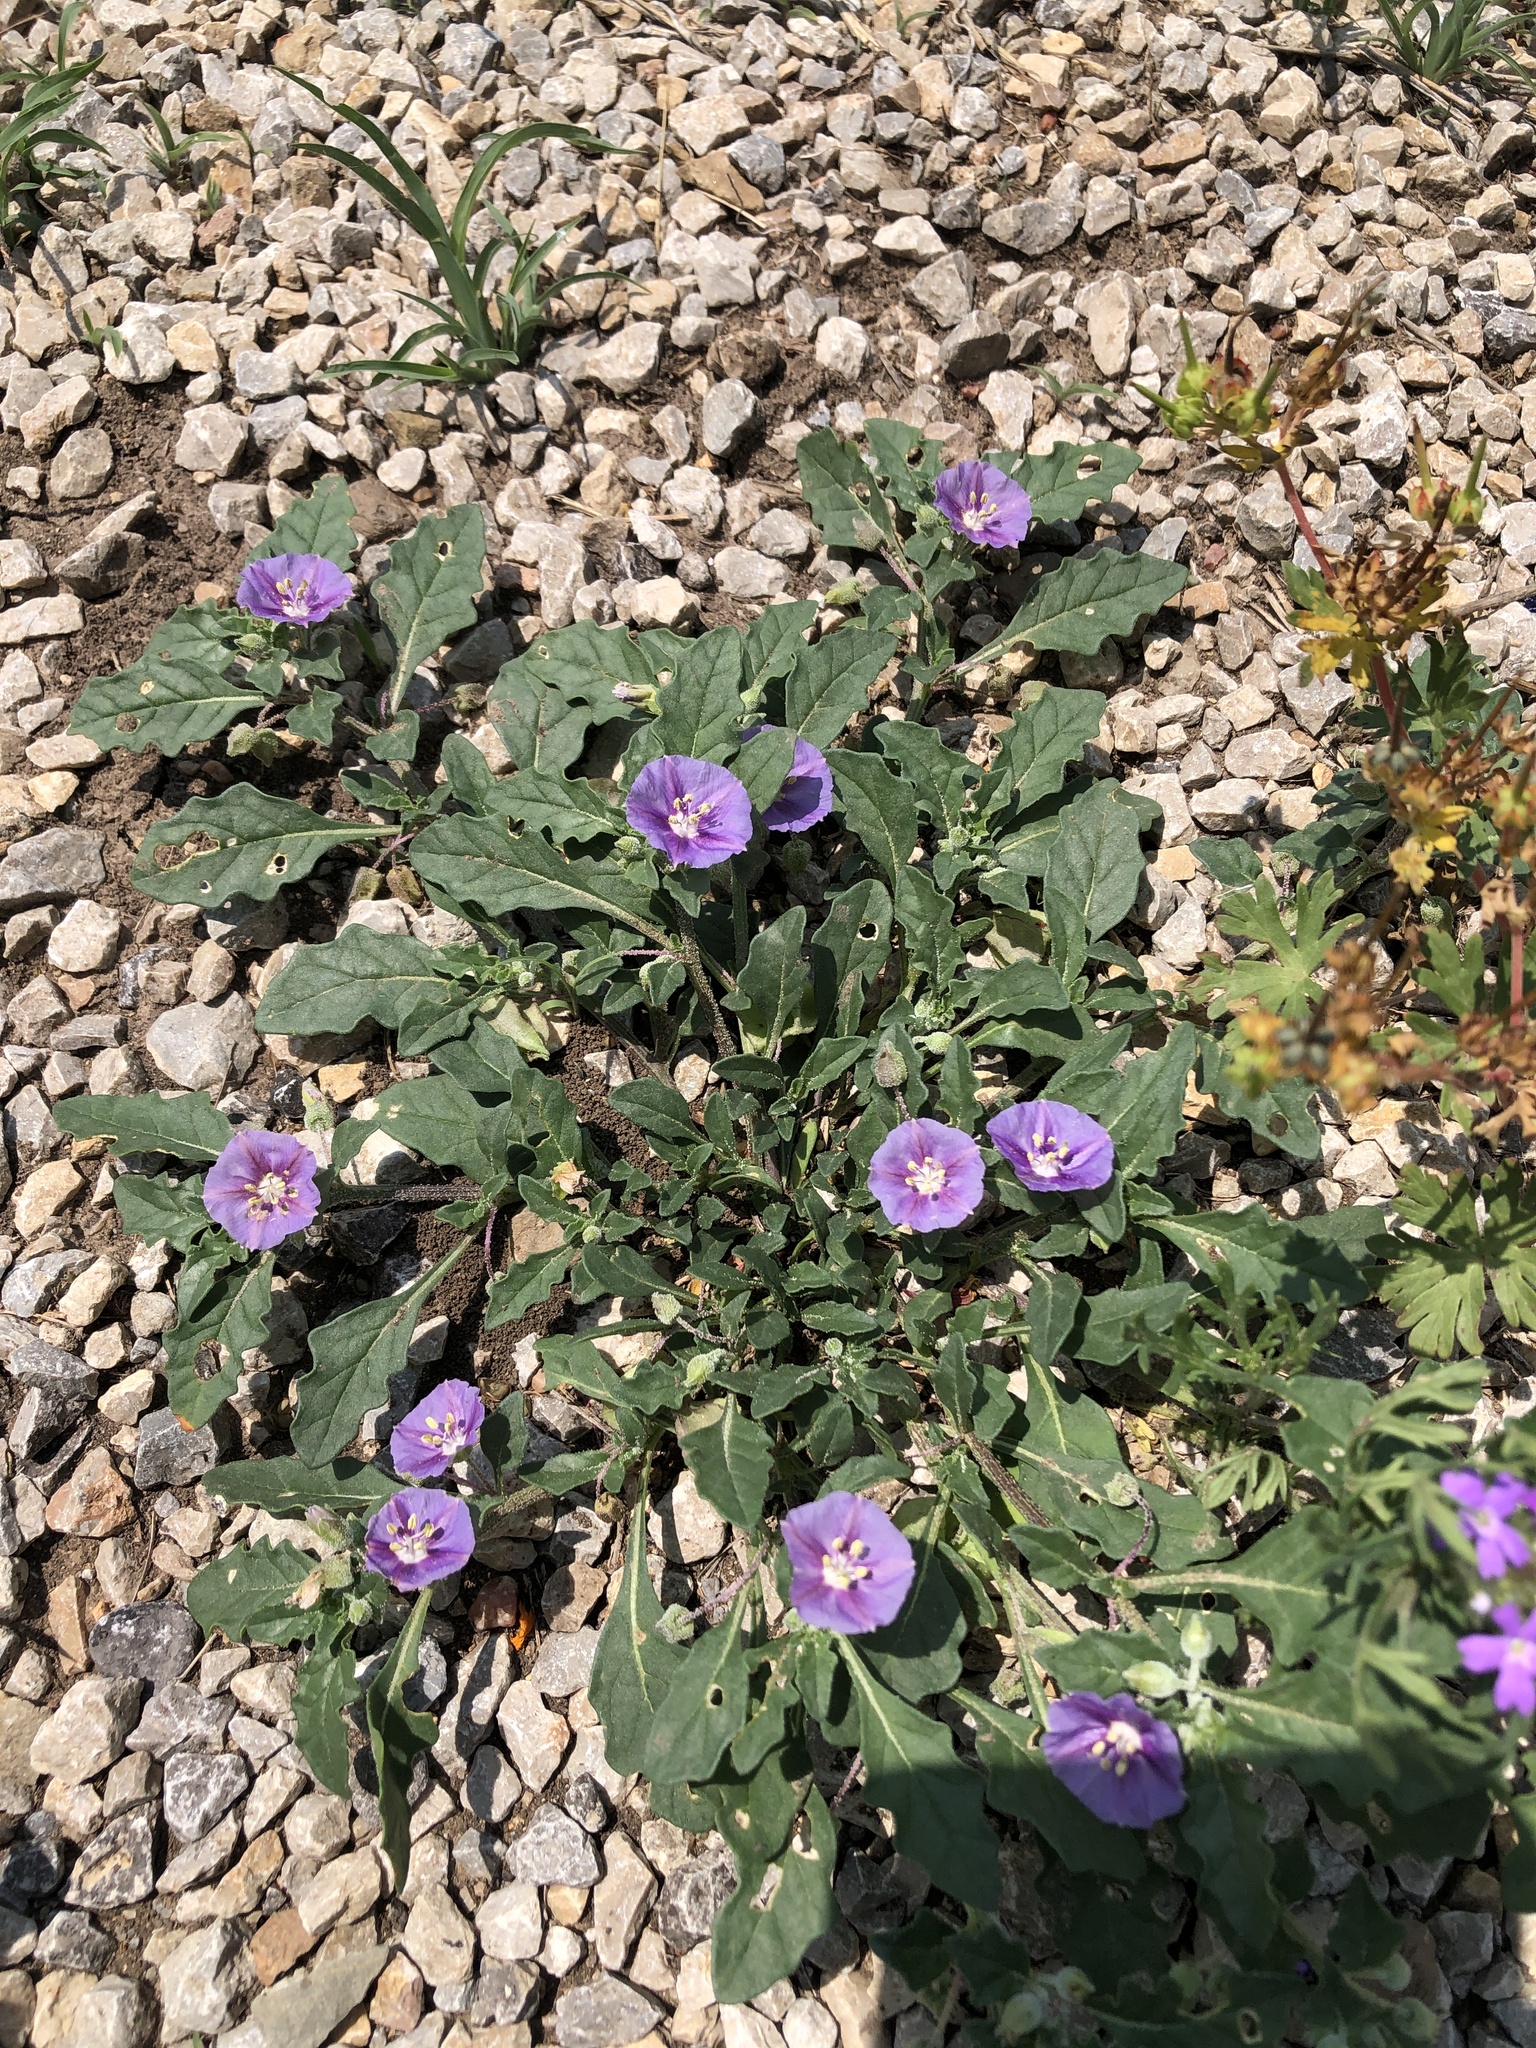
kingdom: Plantae
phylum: Tracheophyta
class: Magnoliopsida
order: Solanales
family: Solanaceae
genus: Quincula
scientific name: Quincula lobata
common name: Purple-ground-cherry
